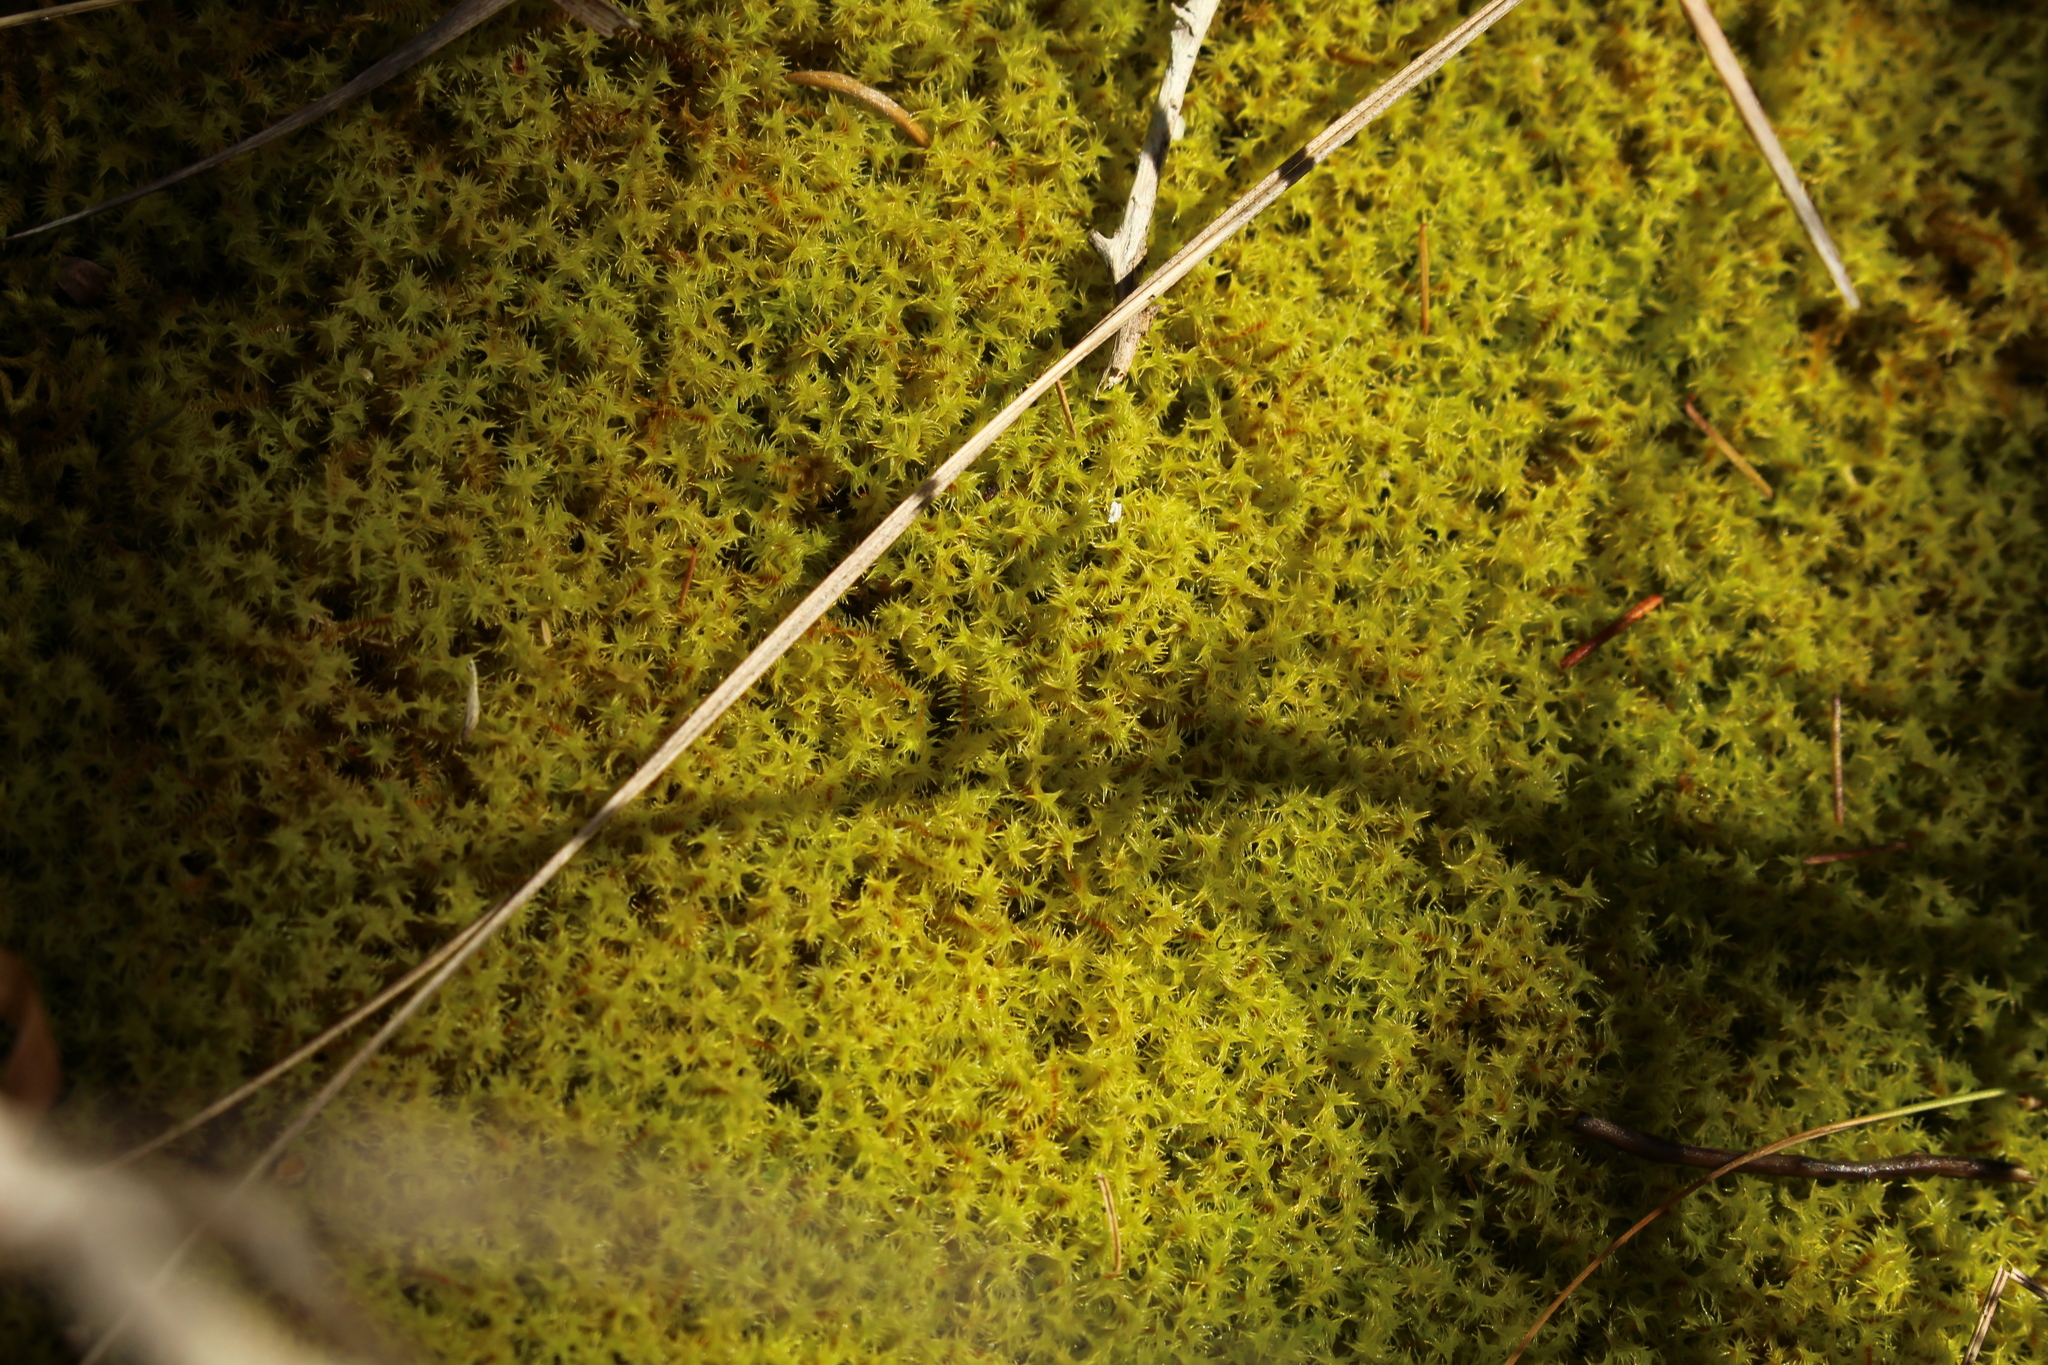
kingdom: Plantae
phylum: Bryophyta
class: Bryopsida
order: Pottiales
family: Pottiaceae
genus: Triquetrella
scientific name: Triquetrella papillata
